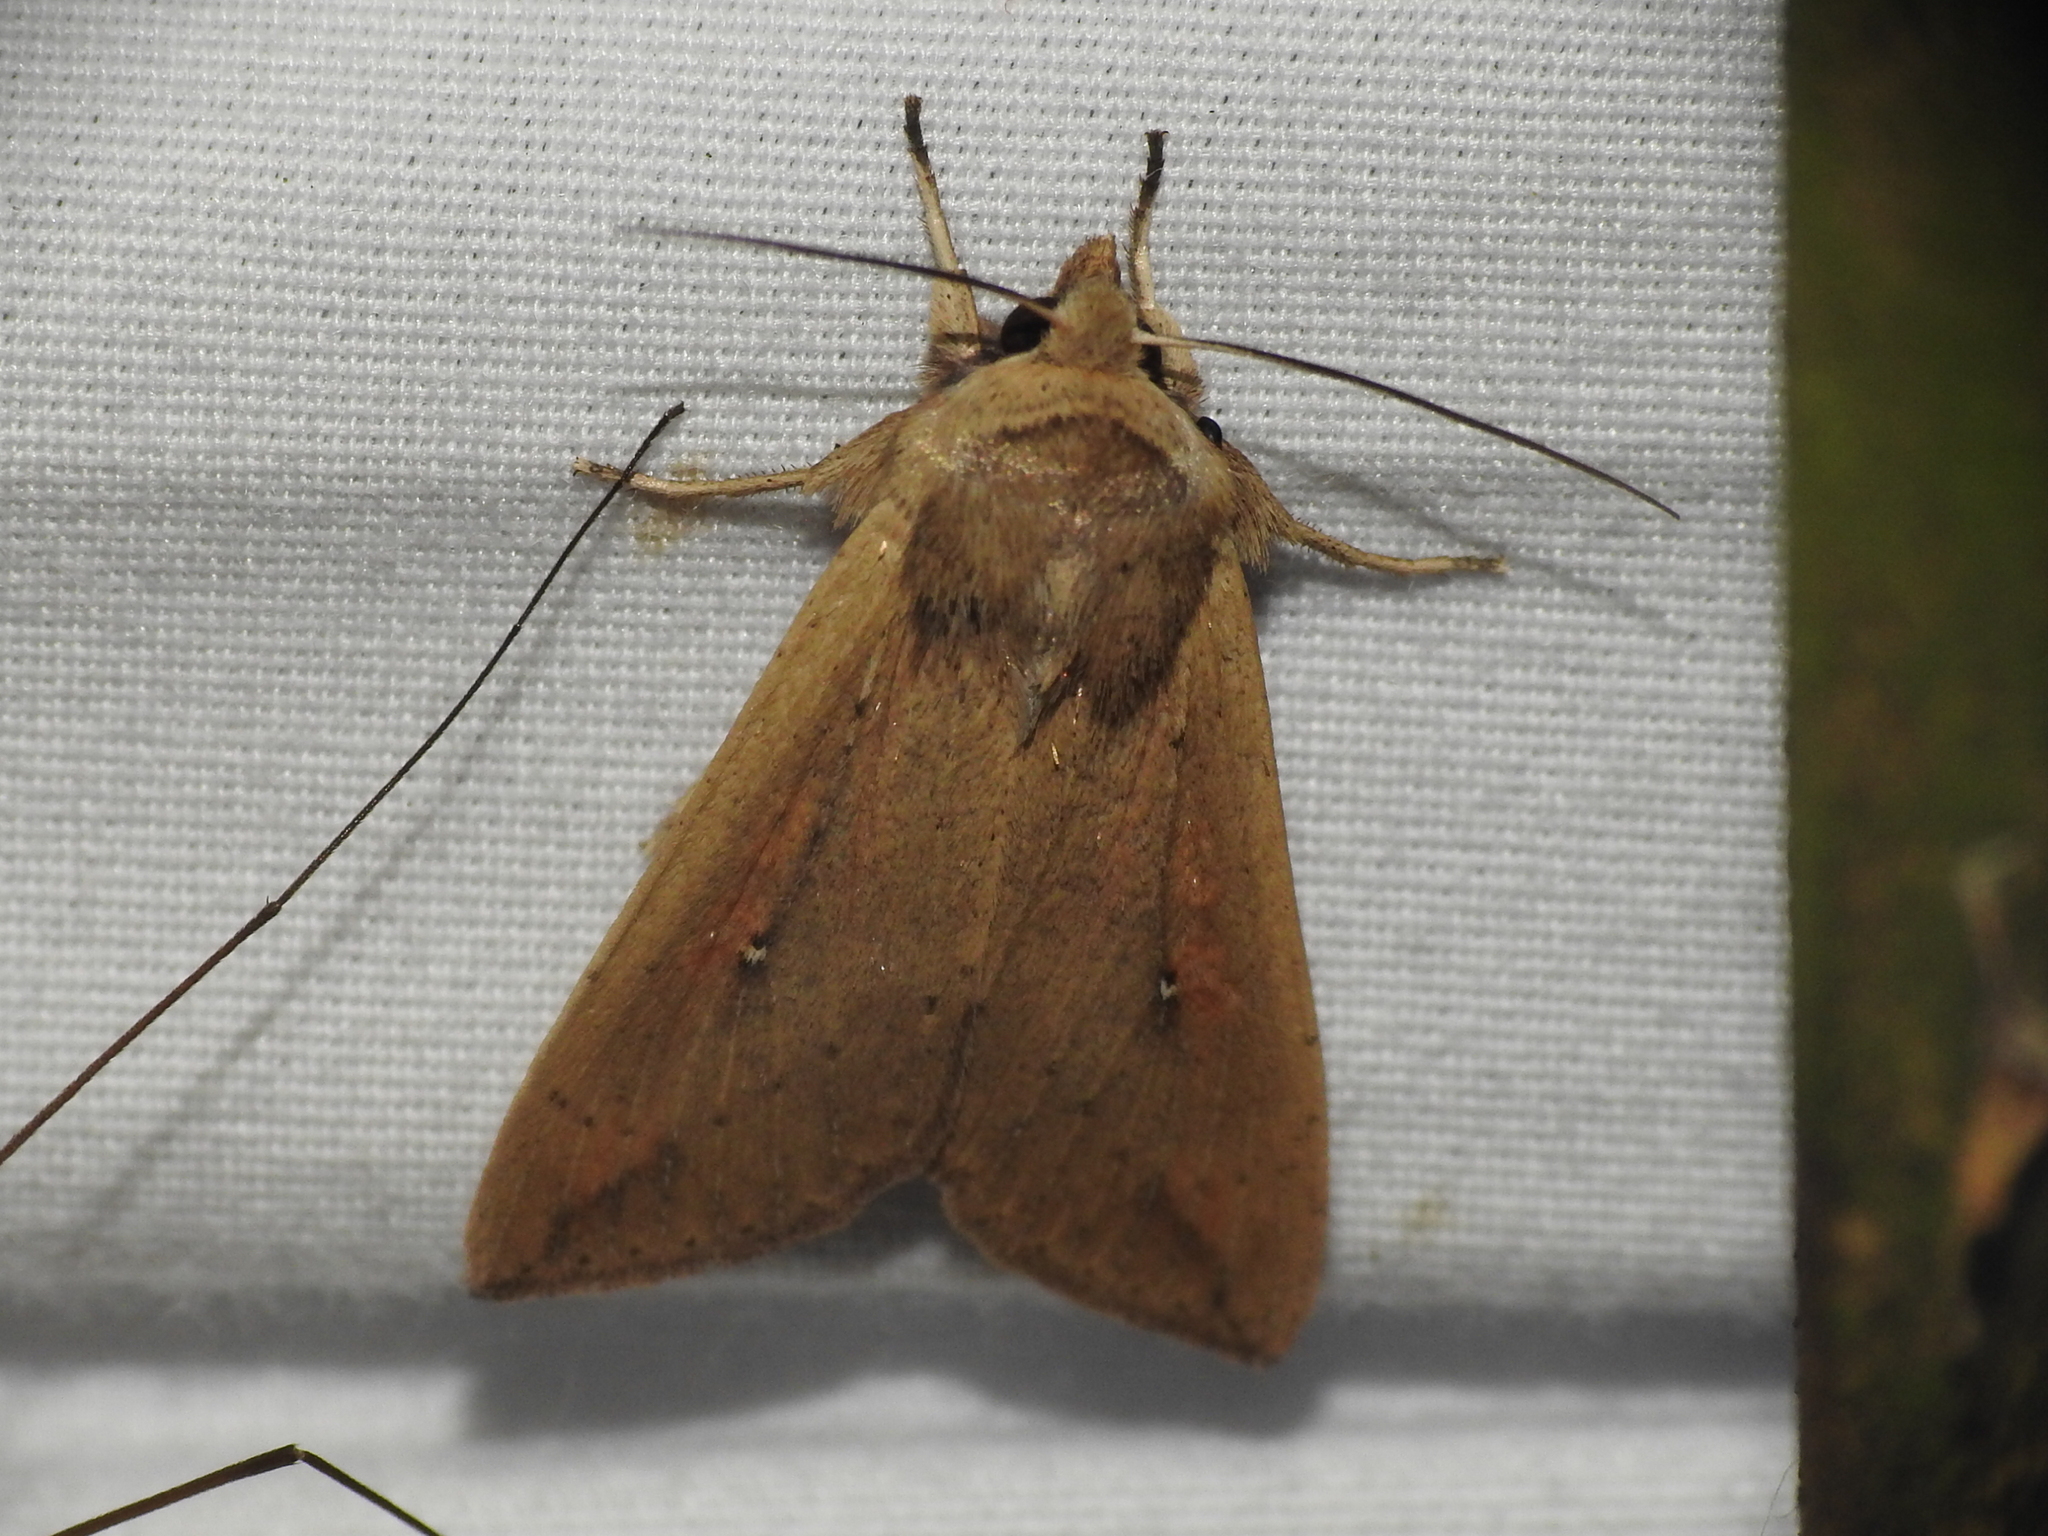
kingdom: Animalia
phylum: Arthropoda
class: Insecta
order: Lepidoptera
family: Noctuidae
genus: Mythimna
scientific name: Mythimna unipuncta
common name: White-speck
